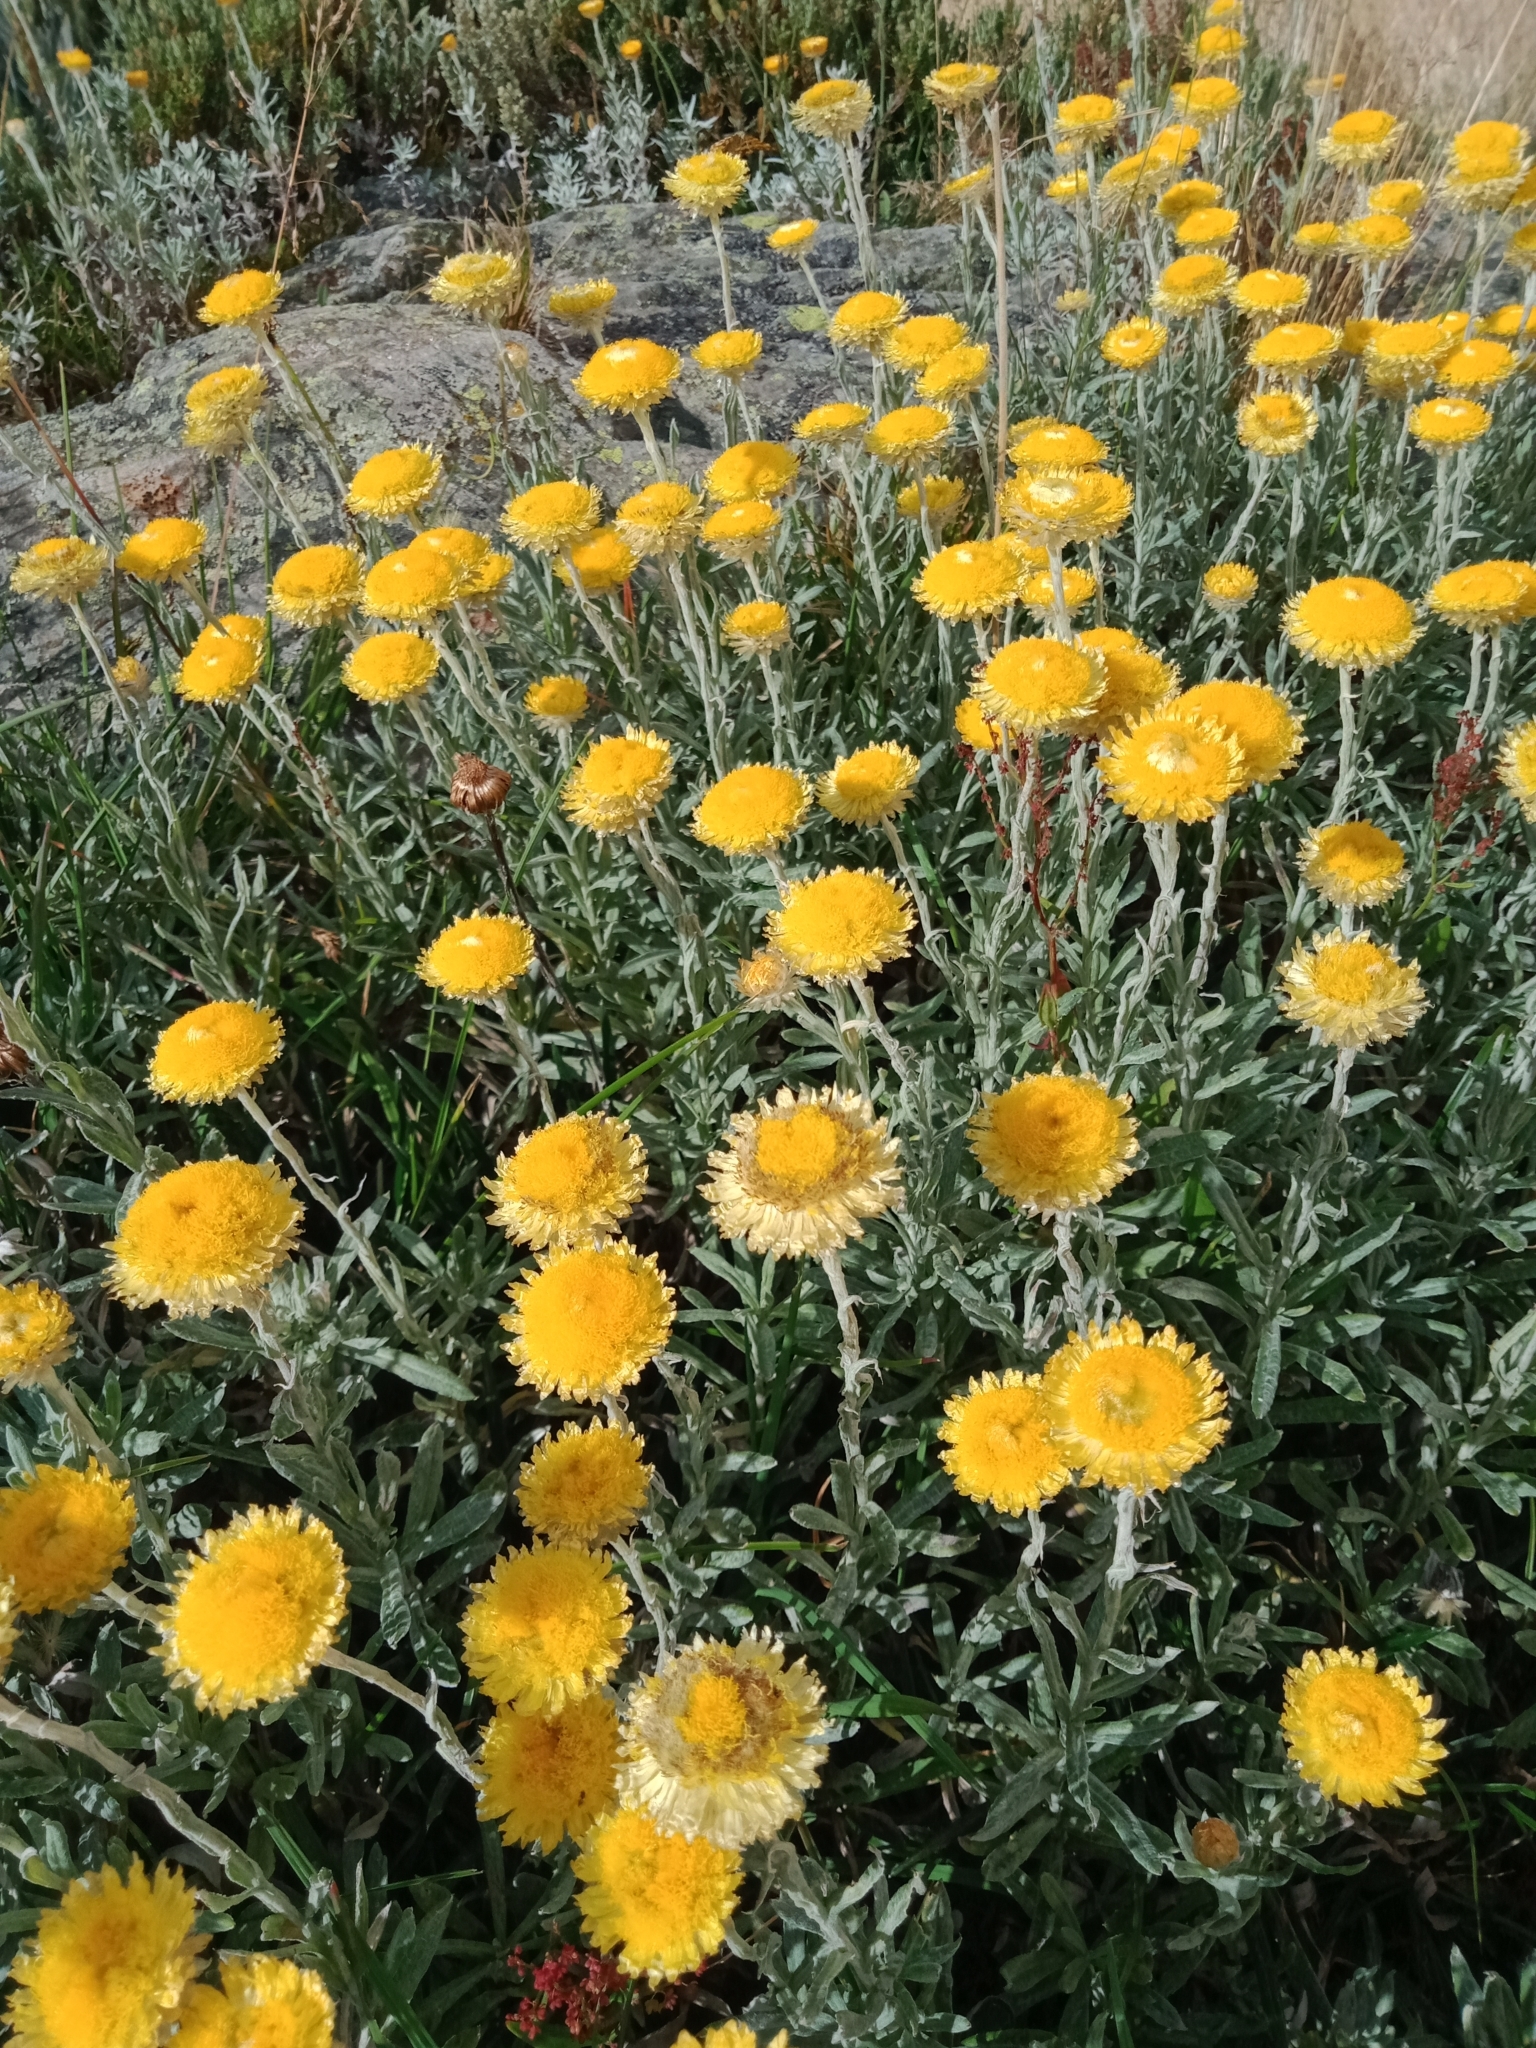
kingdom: Plantae
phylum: Tracheophyta
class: Magnoliopsida
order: Asterales
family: Asteraceae
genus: Coronidium
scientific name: Coronidium monticola
